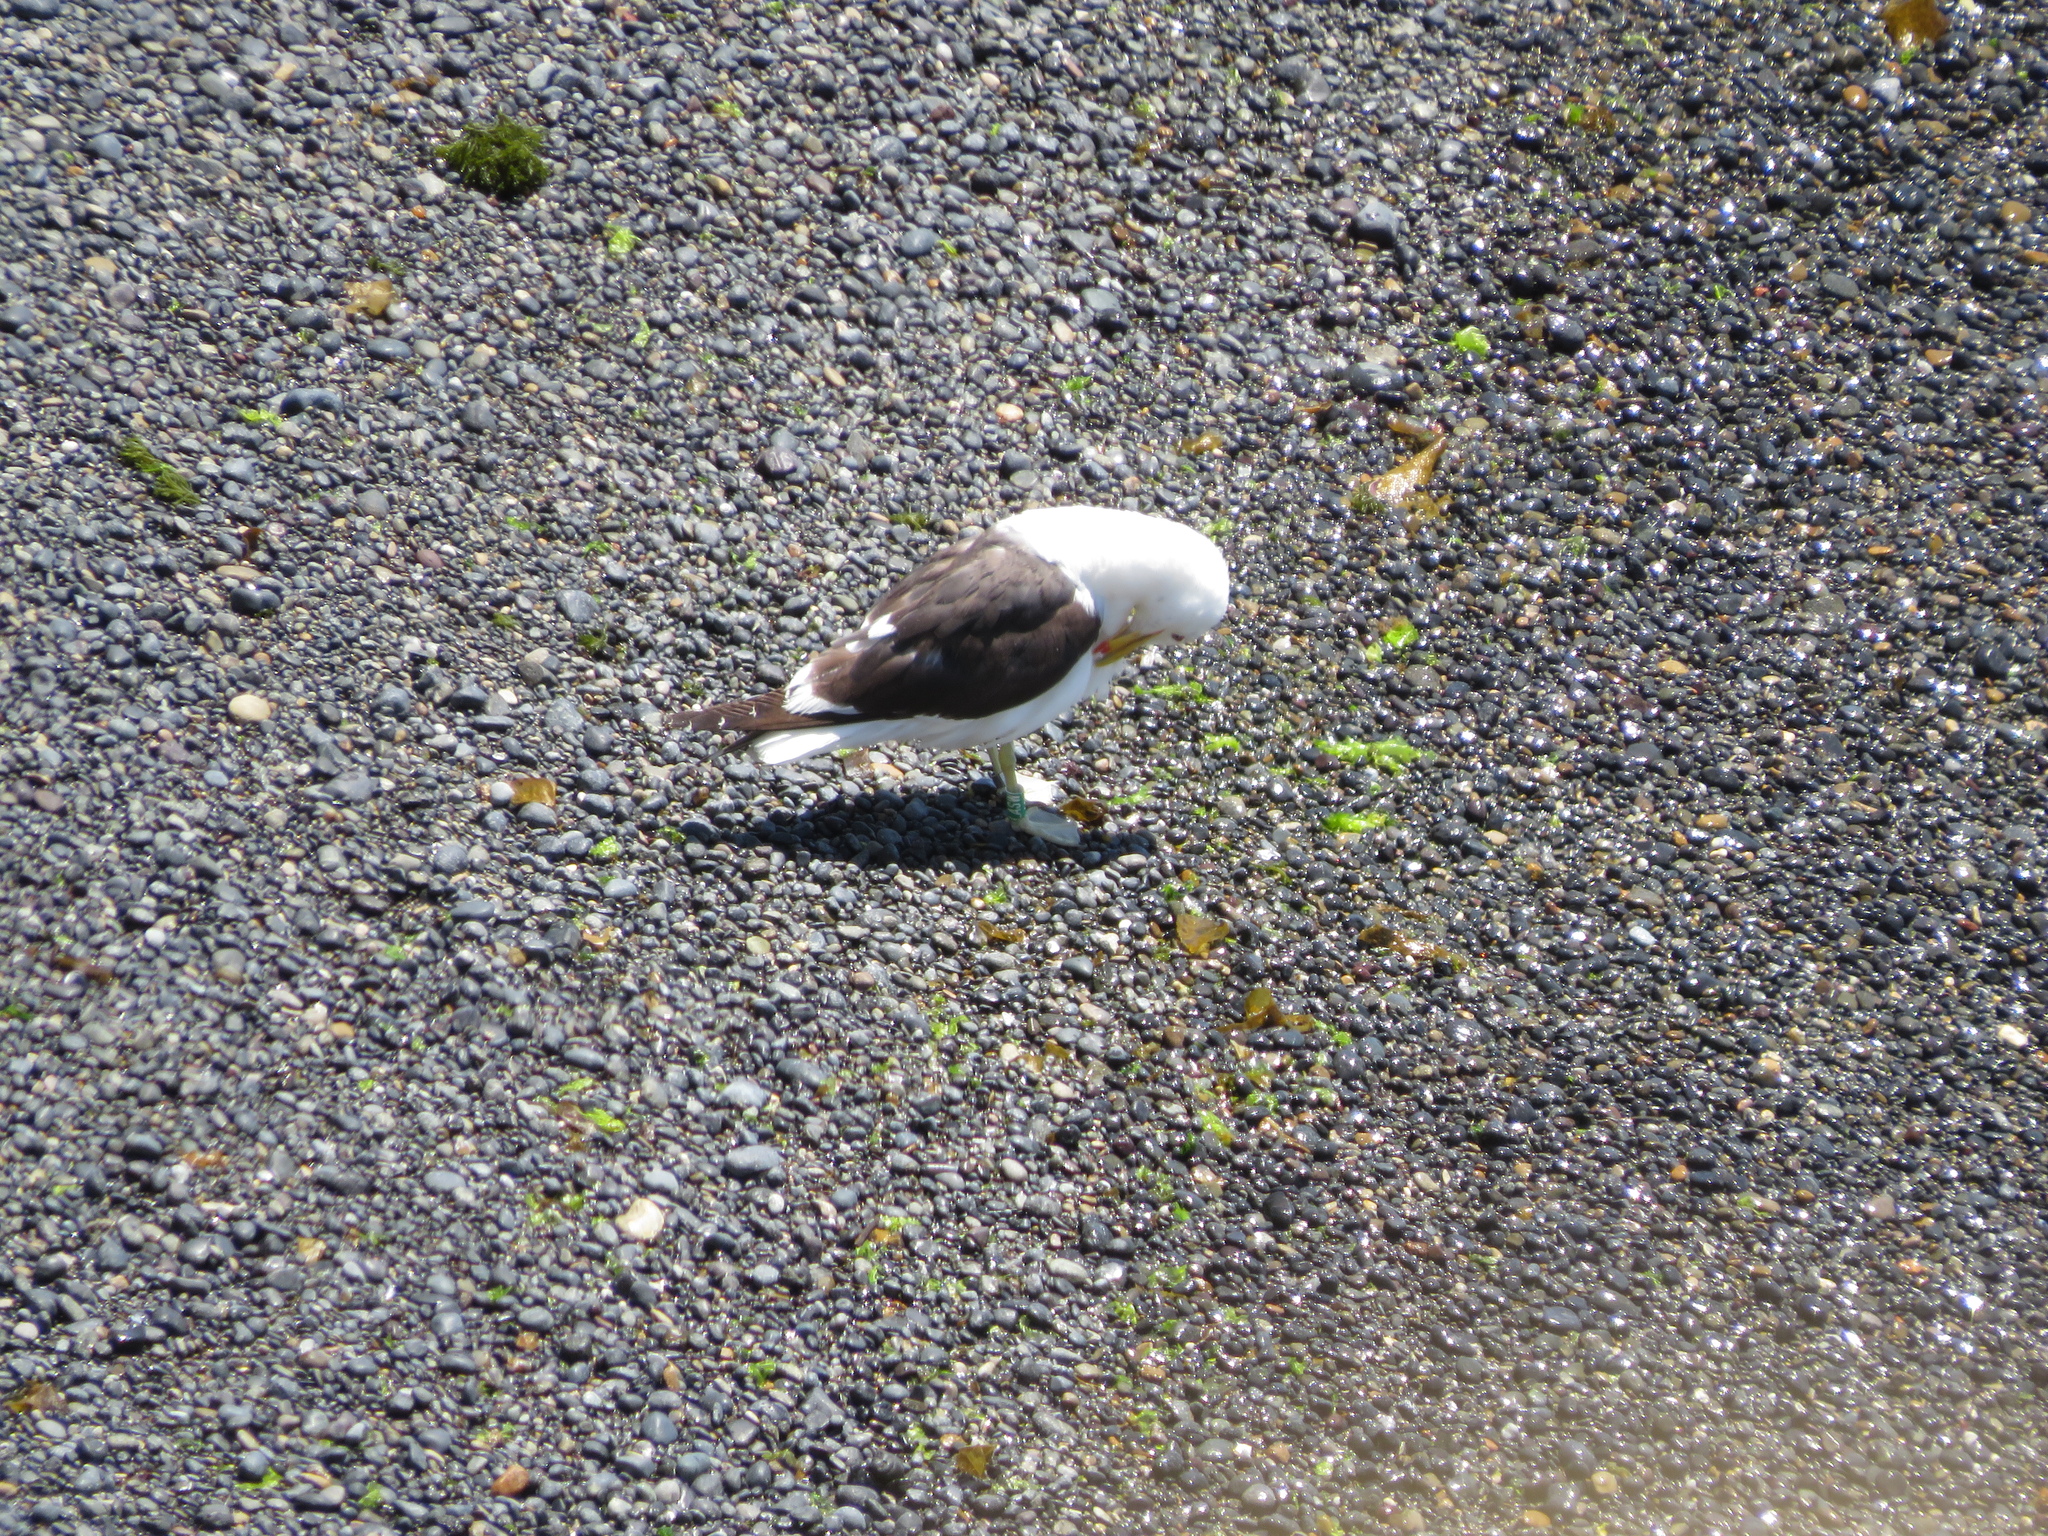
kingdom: Animalia
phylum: Chordata
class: Aves
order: Charadriiformes
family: Laridae
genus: Larus
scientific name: Larus dominicanus
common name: Kelp gull
